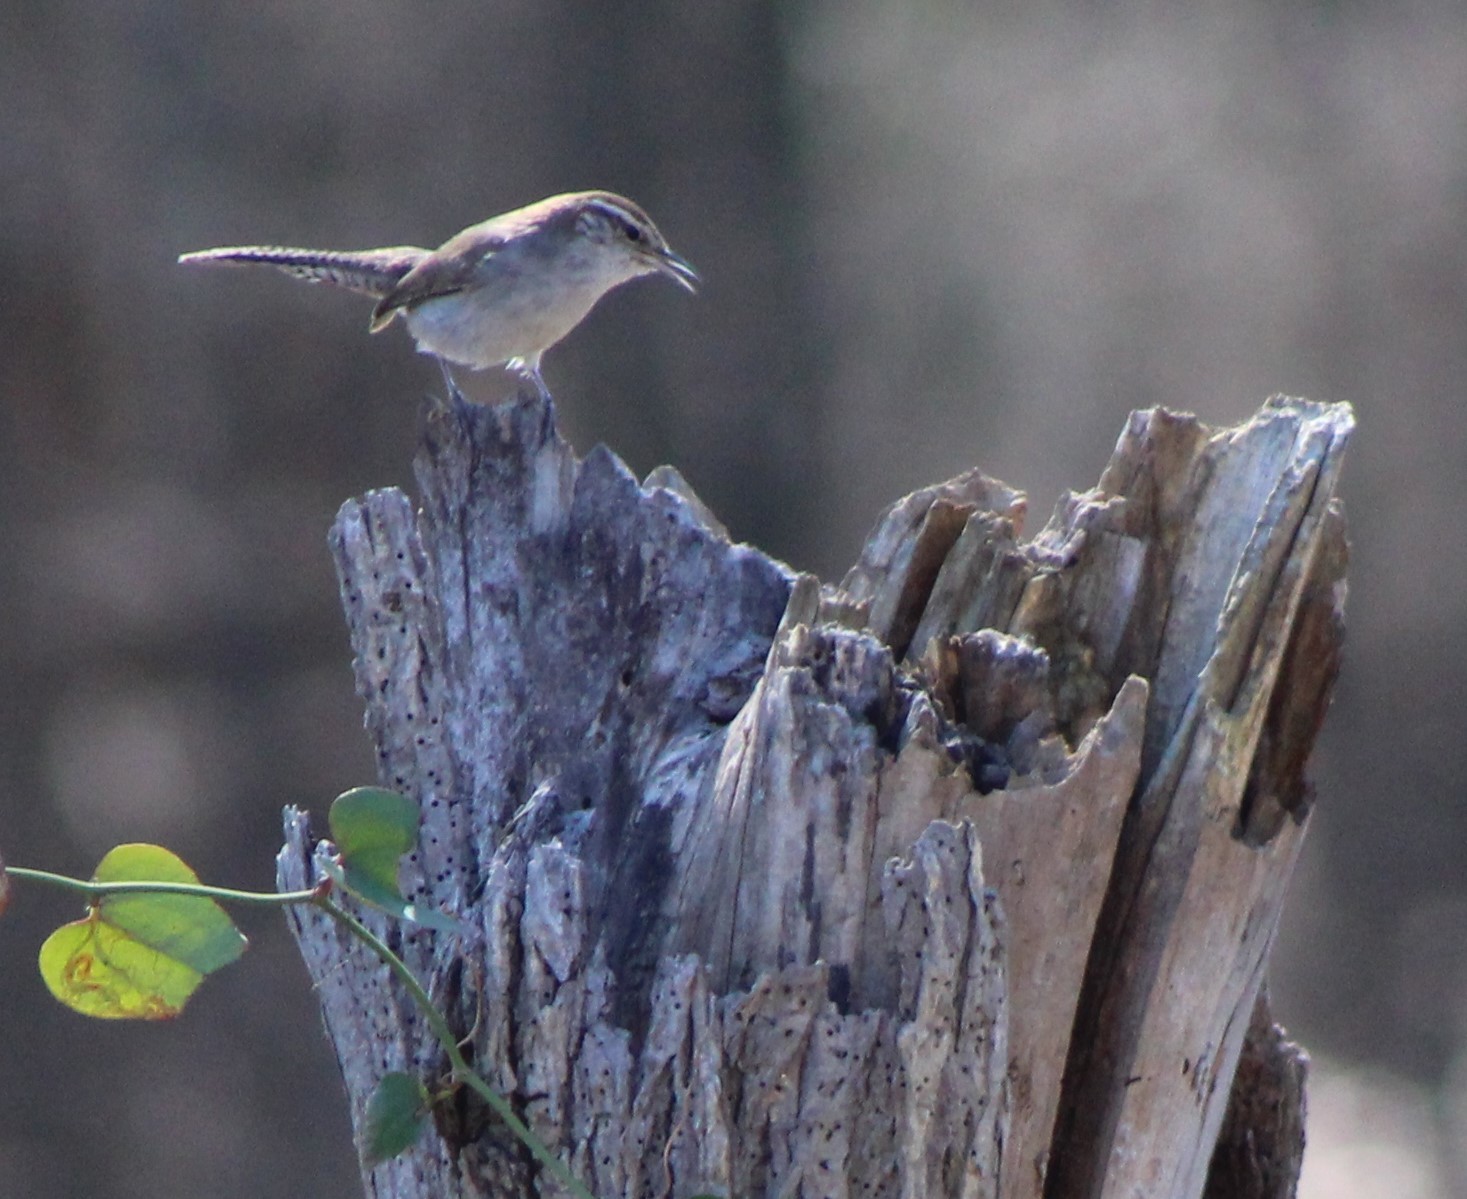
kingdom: Animalia
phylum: Chordata
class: Aves
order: Passeriformes
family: Troglodytidae
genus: Thryomanes
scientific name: Thryomanes bewickii
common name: Bewick's wren
